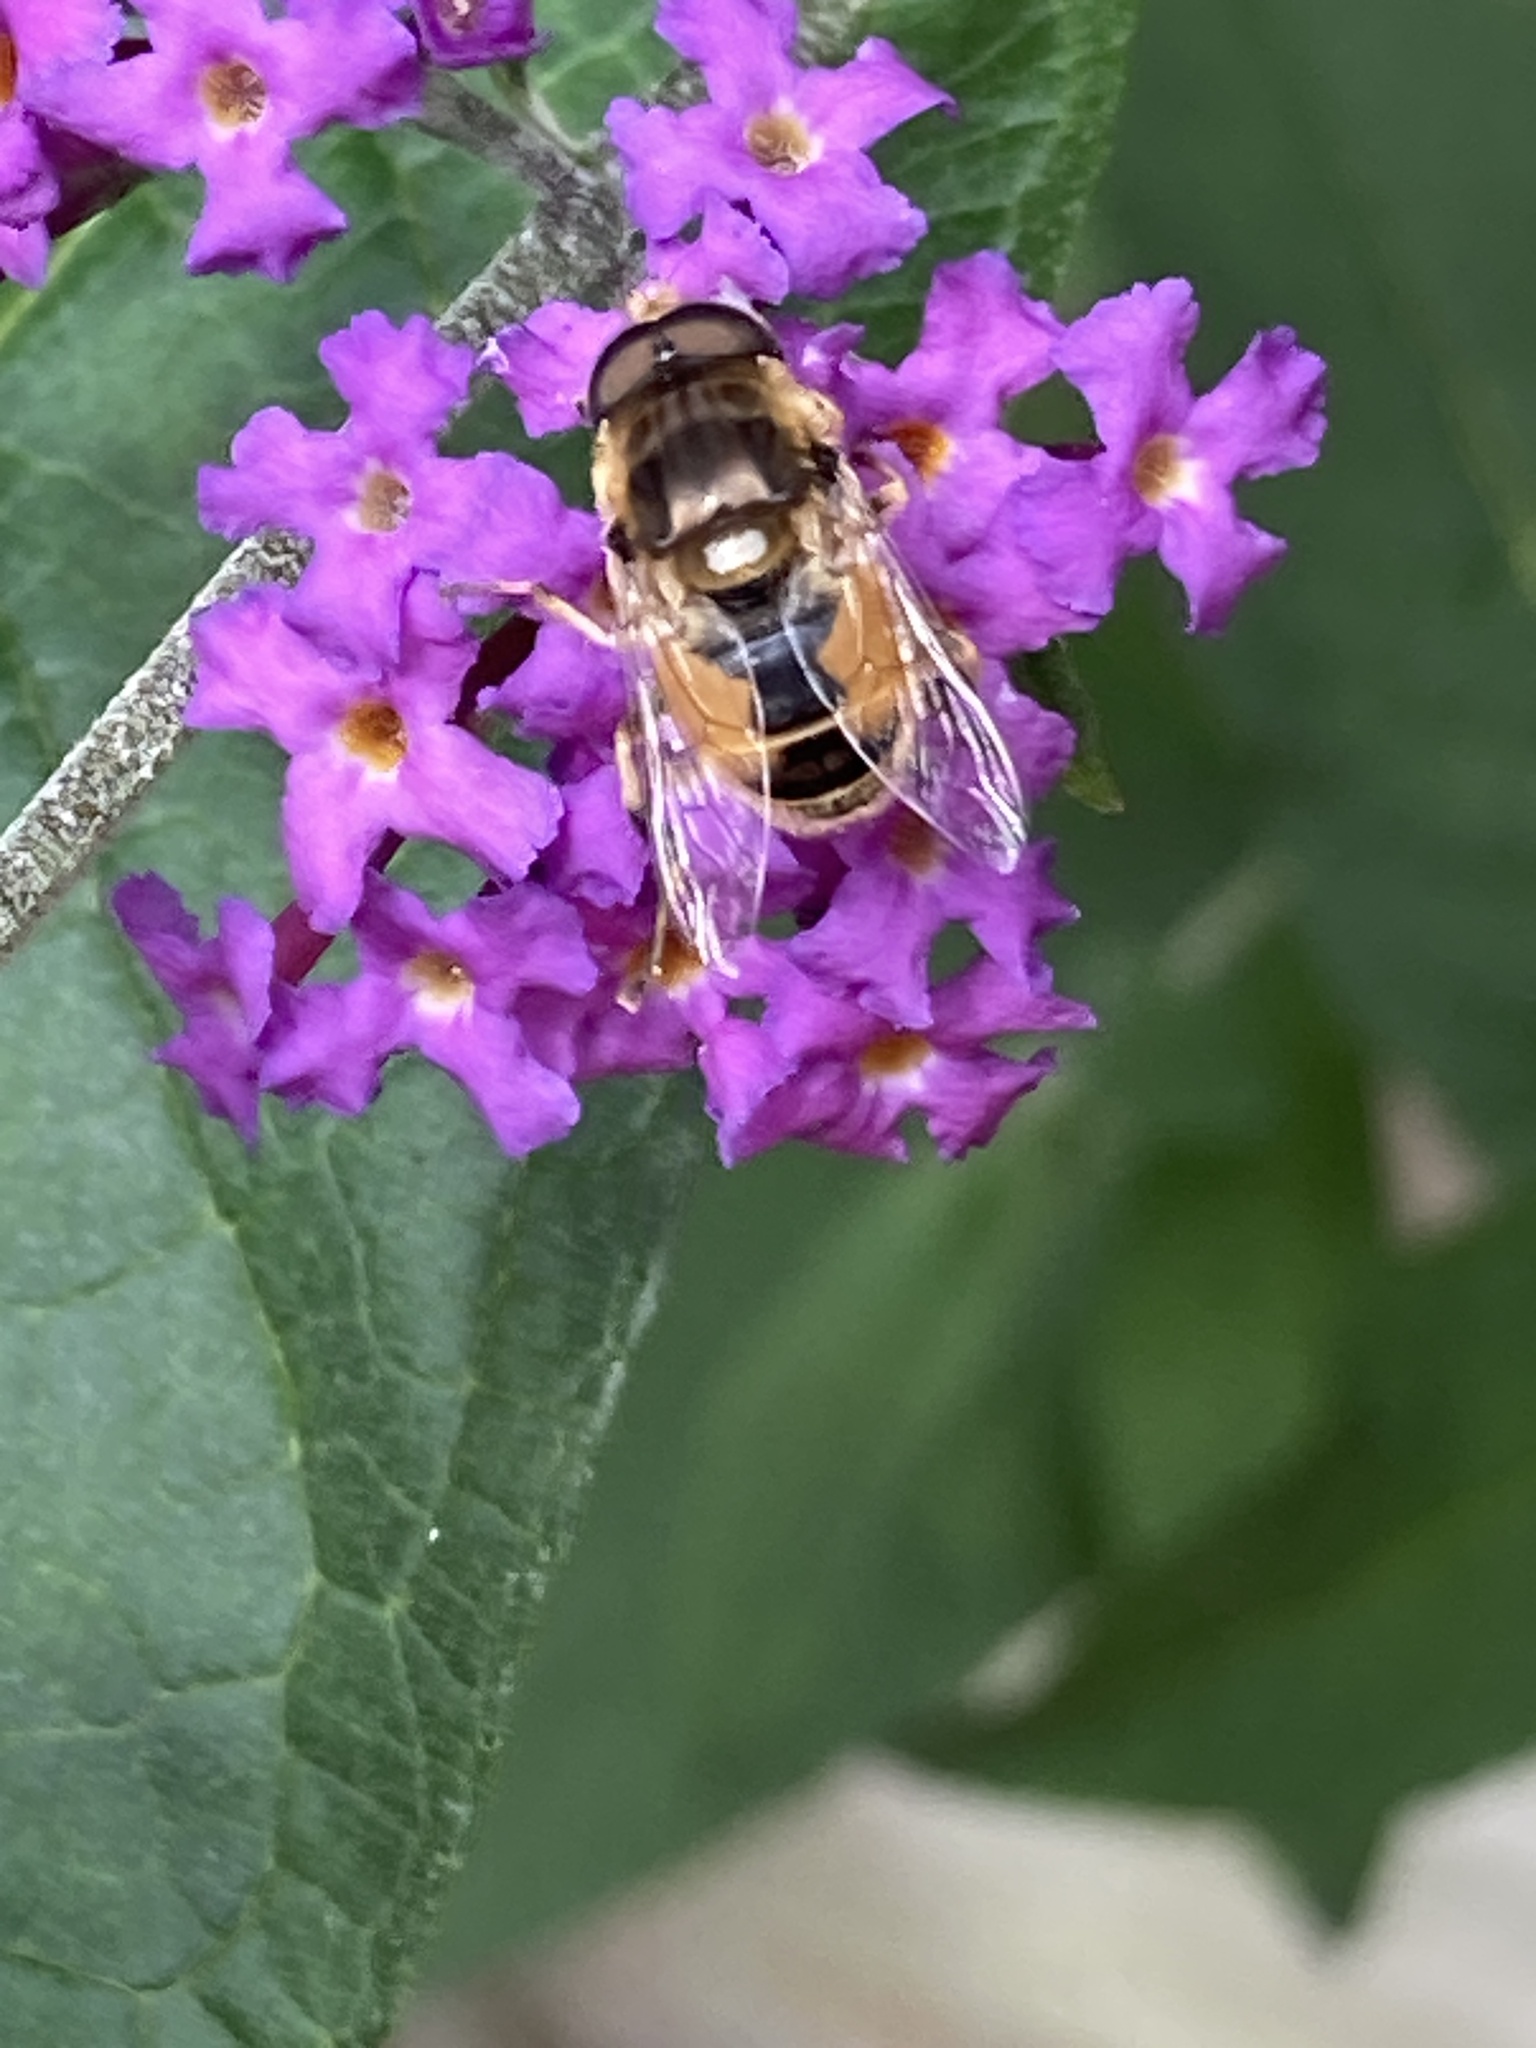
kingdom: Animalia
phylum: Arthropoda
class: Insecta
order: Diptera
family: Syrphidae
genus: Eristalis
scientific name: Eristalis arbustorum
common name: Hover fly
